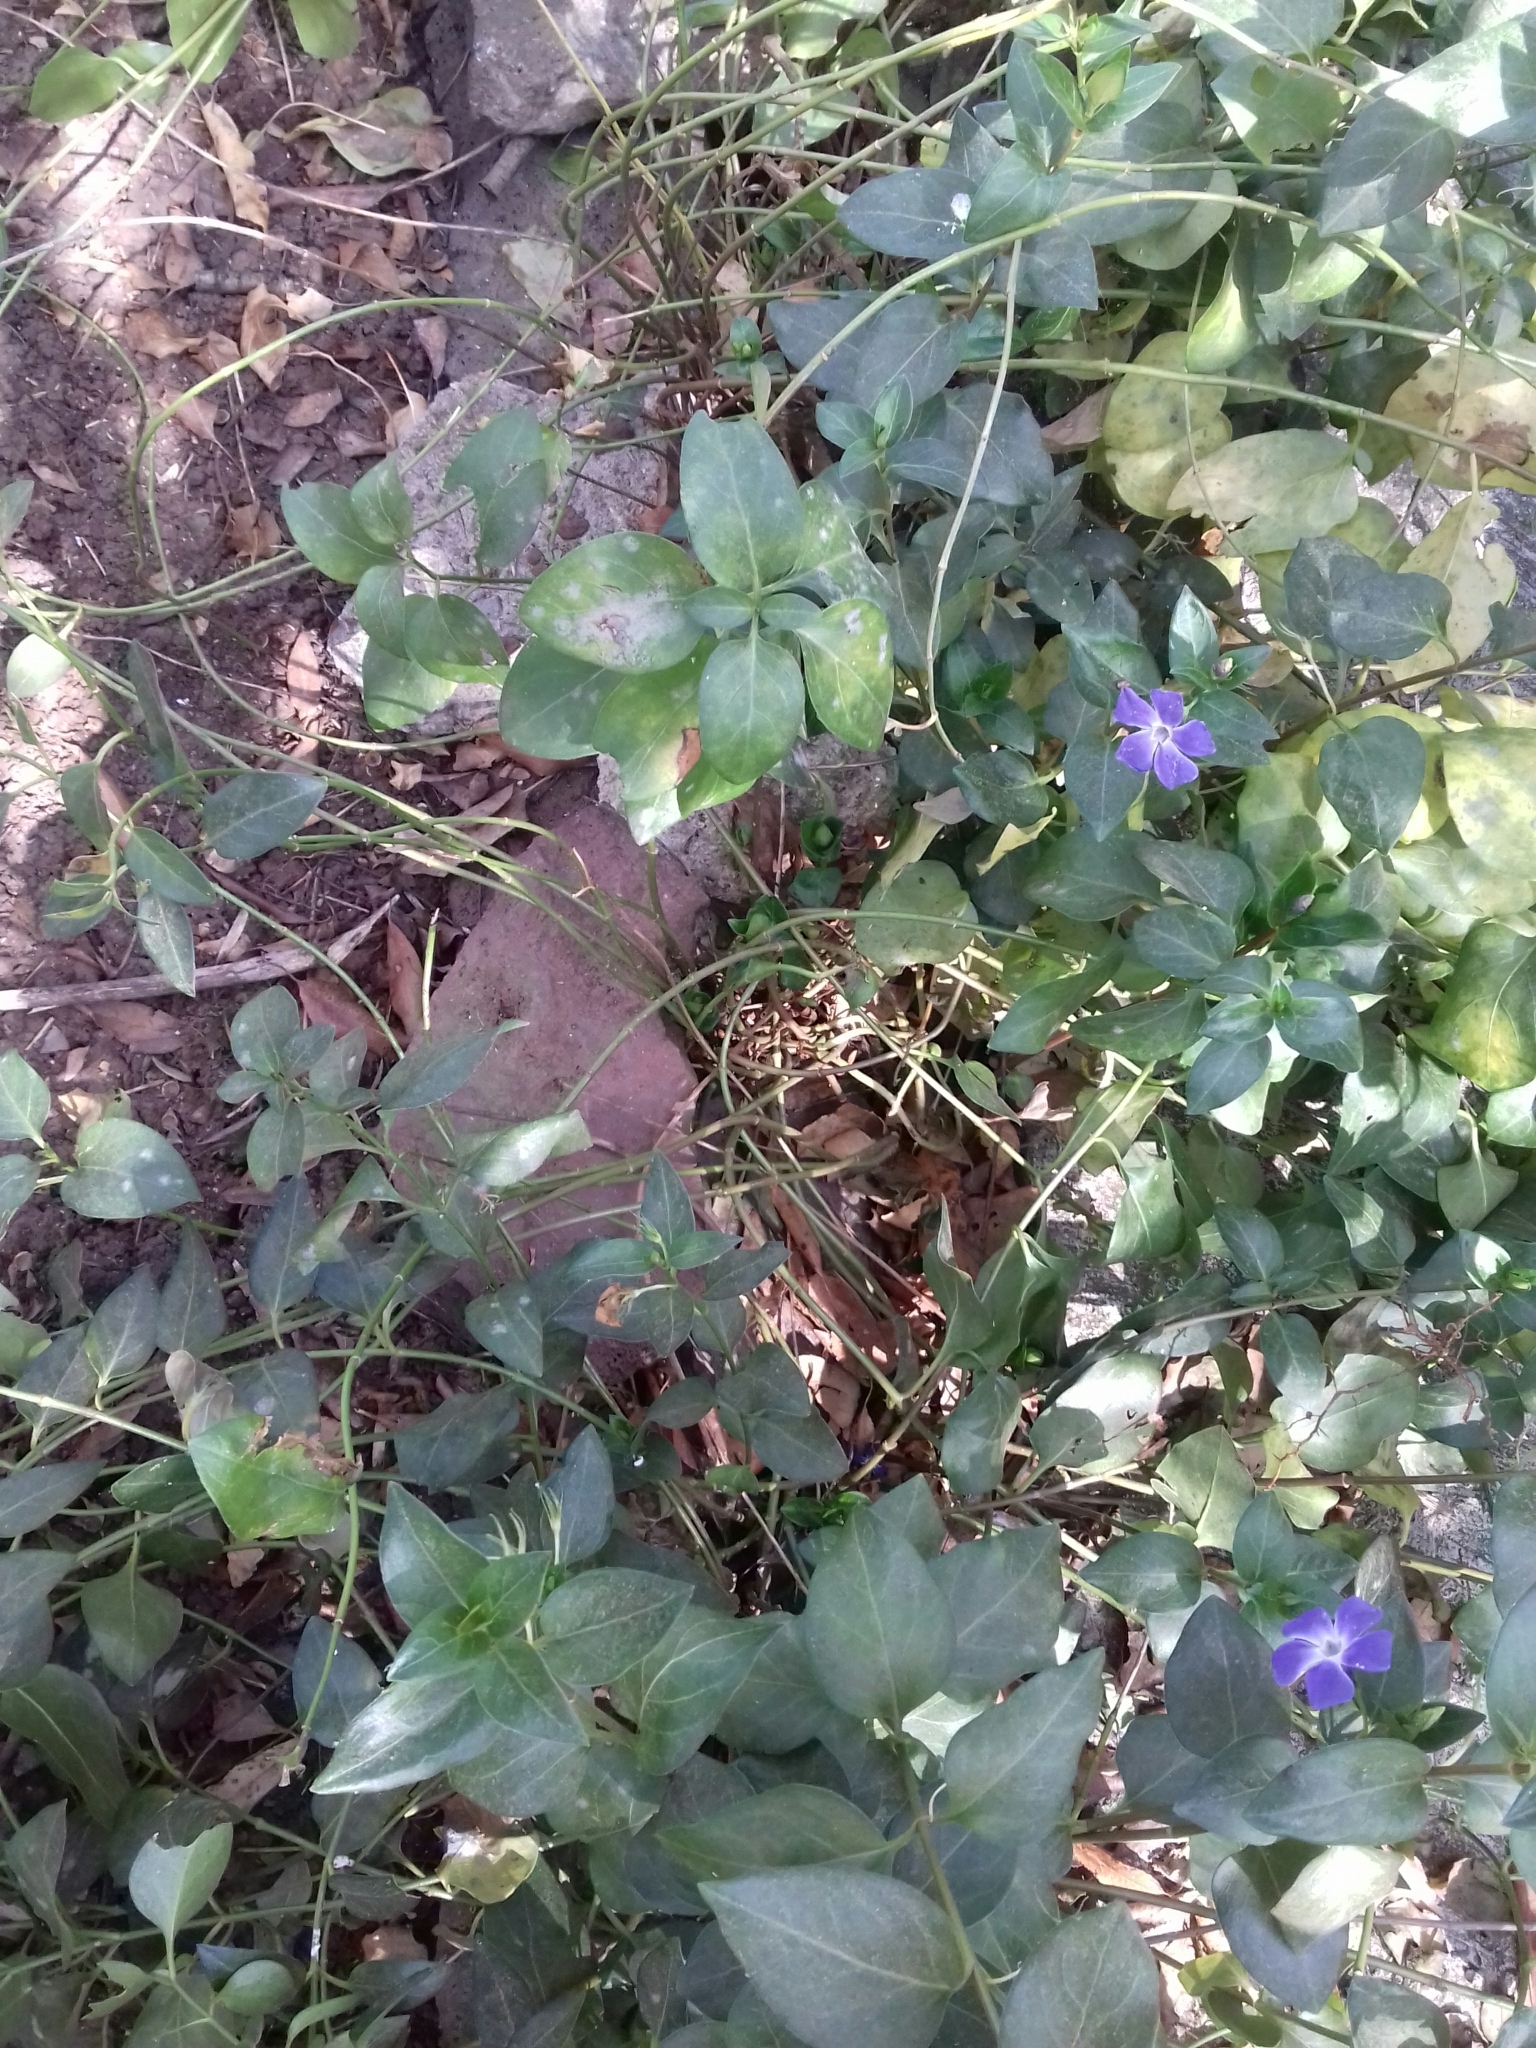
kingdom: Plantae
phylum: Tracheophyta
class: Magnoliopsida
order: Gentianales
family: Apocynaceae
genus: Vinca
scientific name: Vinca major
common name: Greater periwinkle
